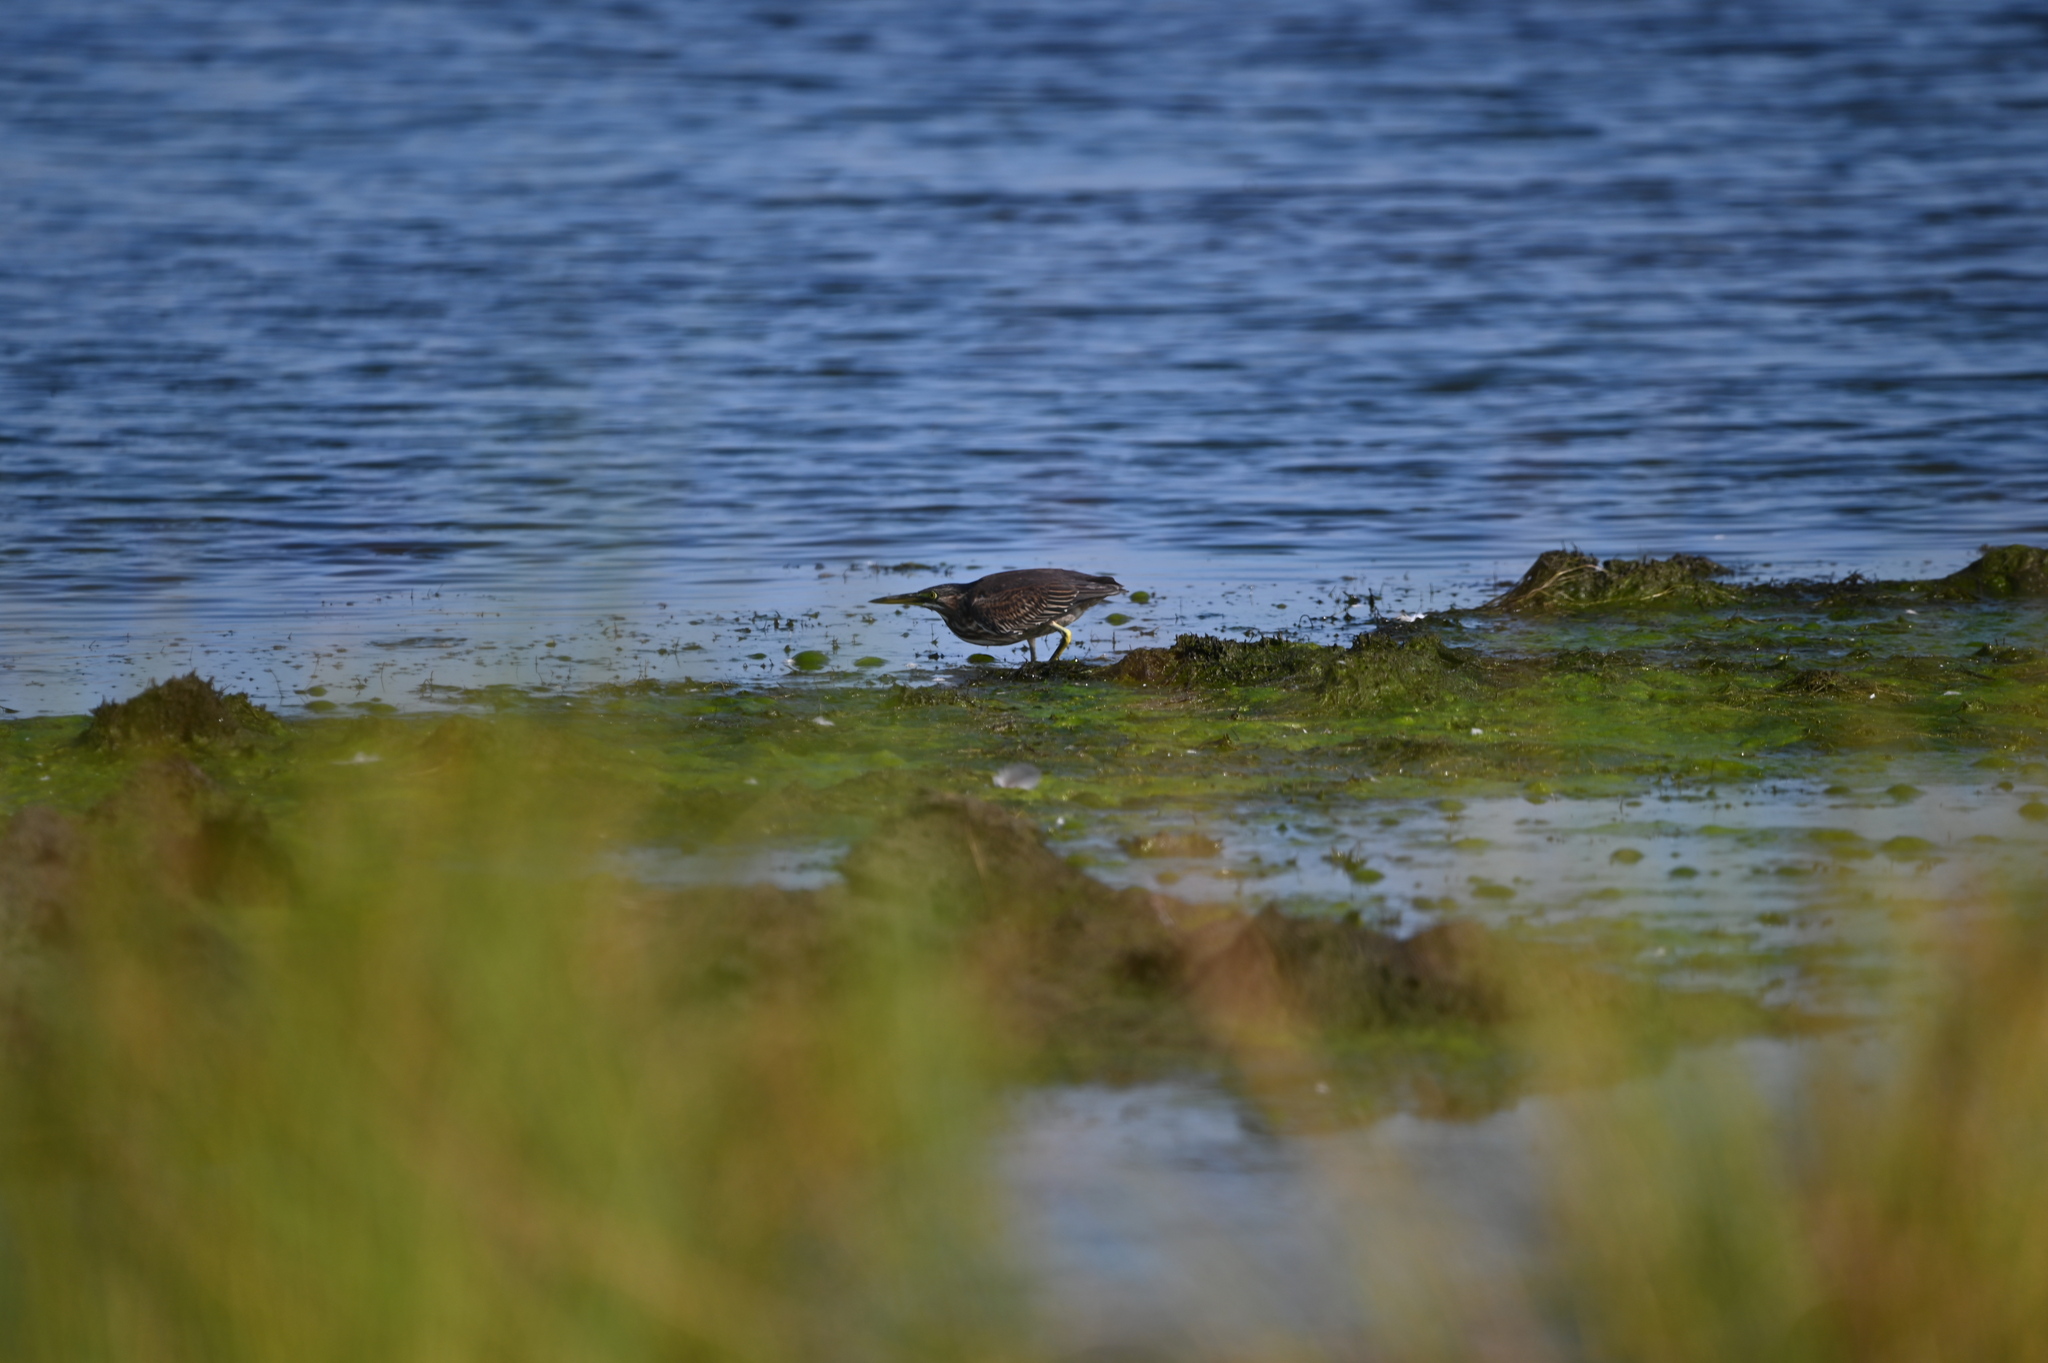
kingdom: Animalia
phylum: Chordata
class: Aves
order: Pelecaniformes
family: Ardeidae
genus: Butorides
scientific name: Butorides virescens
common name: Green heron
